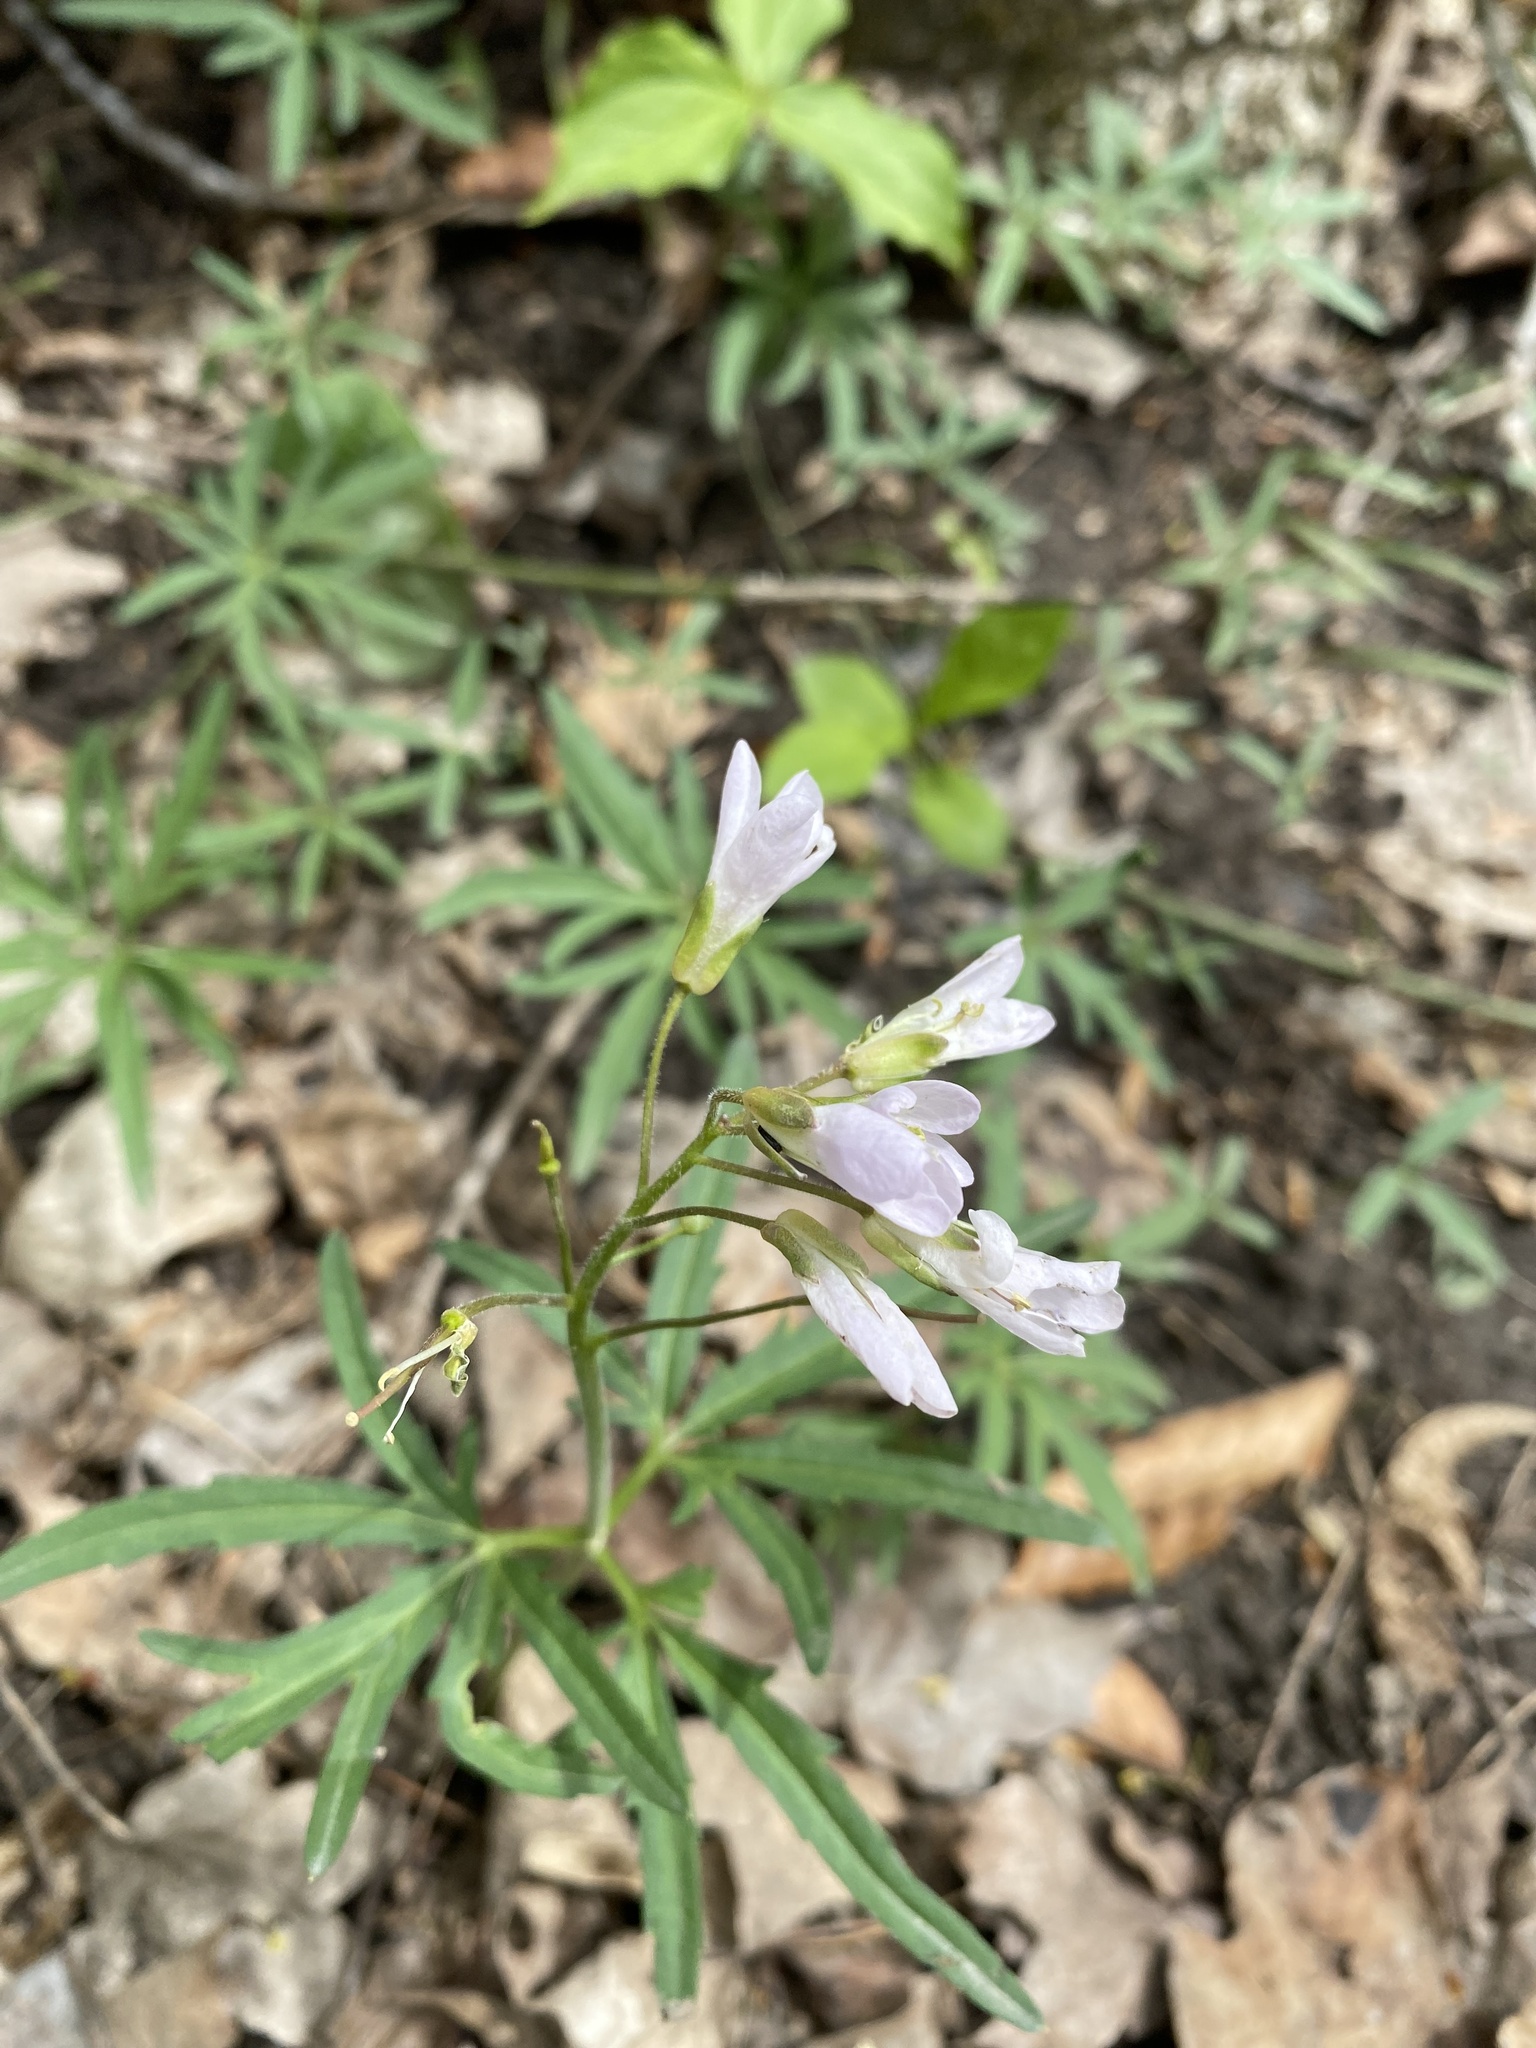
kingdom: Plantae
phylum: Tracheophyta
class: Magnoliopsida
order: Brassicales
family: Brassicaceae
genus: Cardamine
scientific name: Cardamine concatenata
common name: Cut-leaf toothcup
